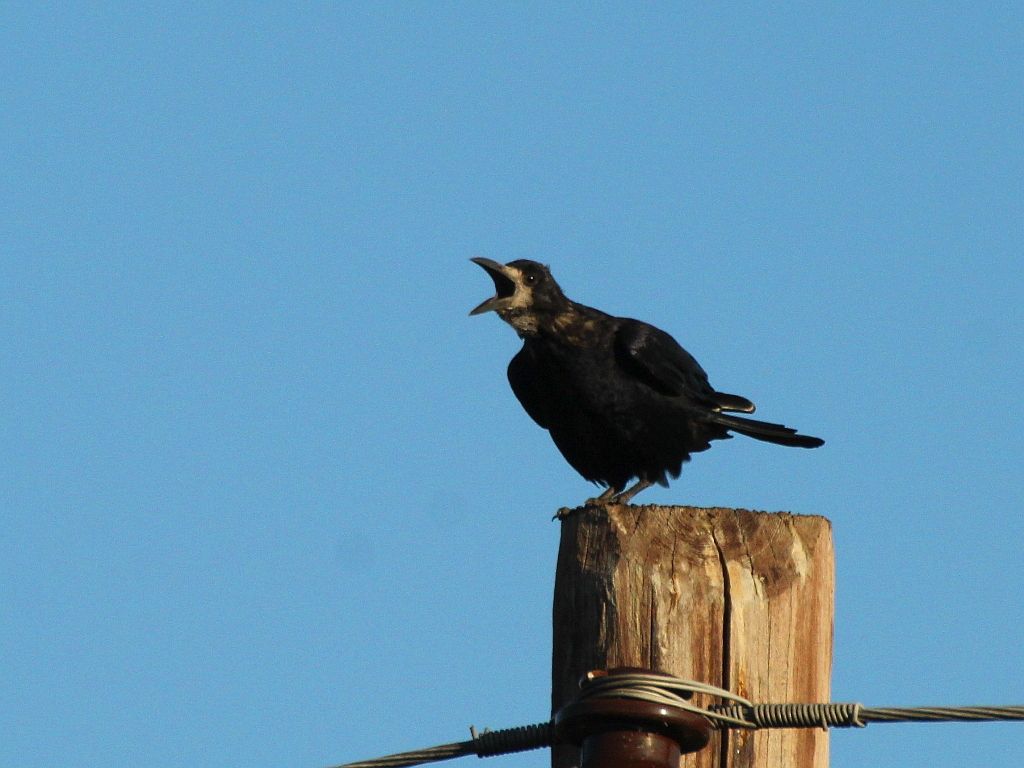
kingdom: Animalia
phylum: Chordata
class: Aves
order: Passeriformes
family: Corvidae
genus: Corvus
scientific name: Corvus frugilegus
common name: Rook
